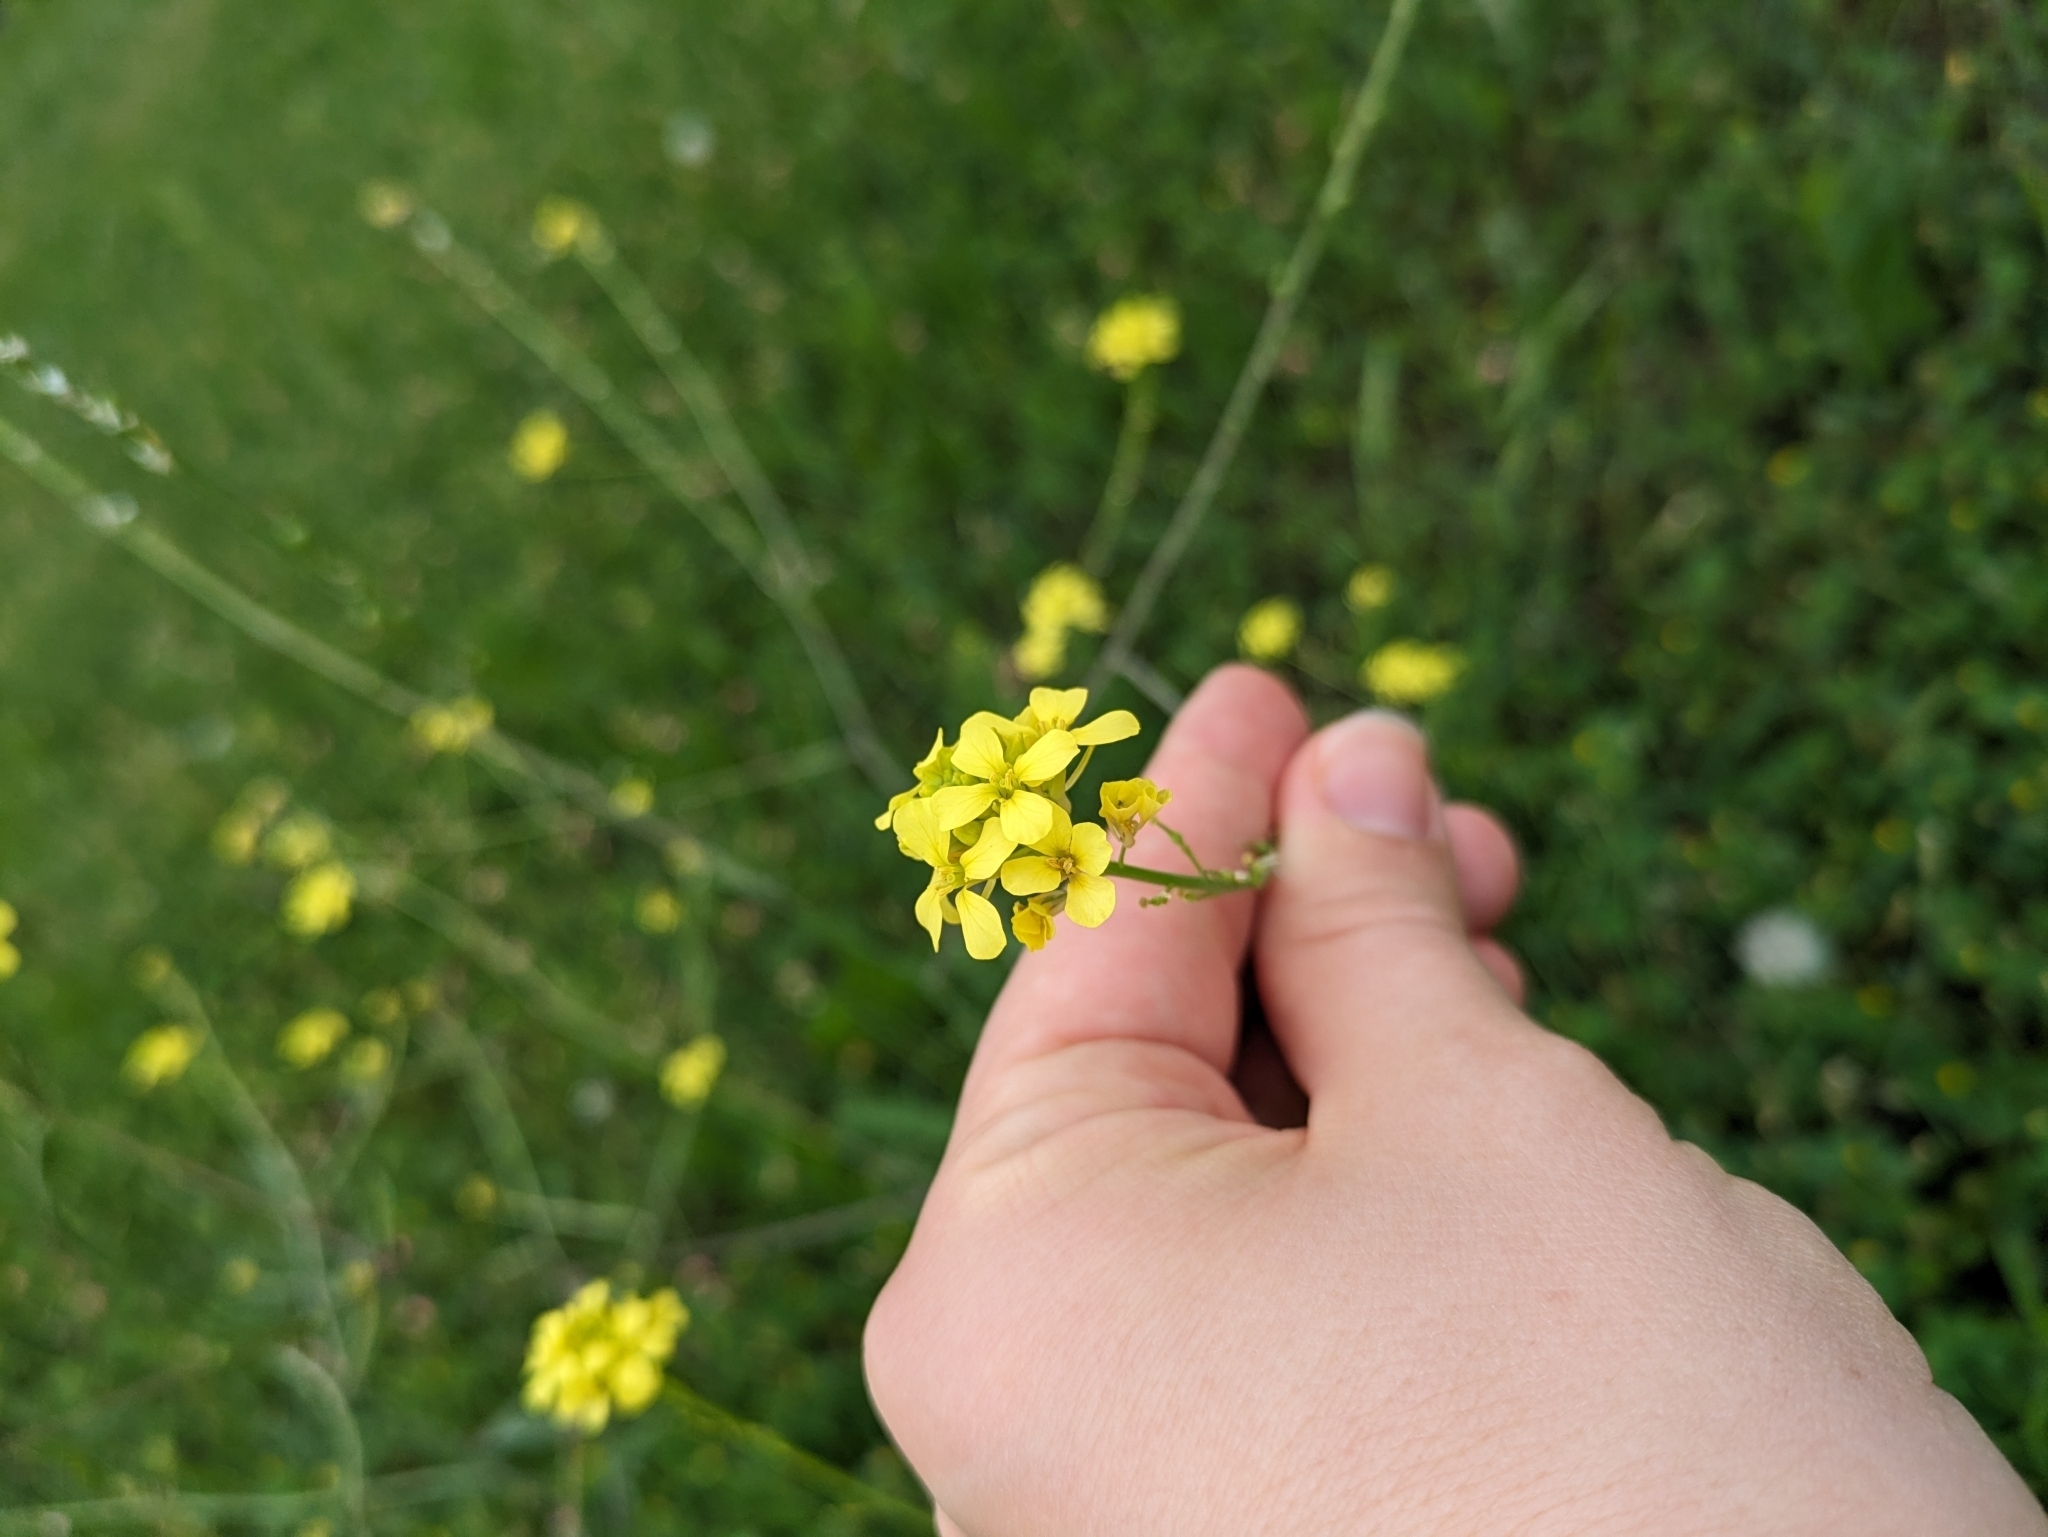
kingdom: Plantae
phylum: Tracheophyta
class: Magnoliopsida
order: Brassicales
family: Brassicaceae
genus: Rapistrum
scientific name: Rapistrum rugosum
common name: Annual bastardcabbage
